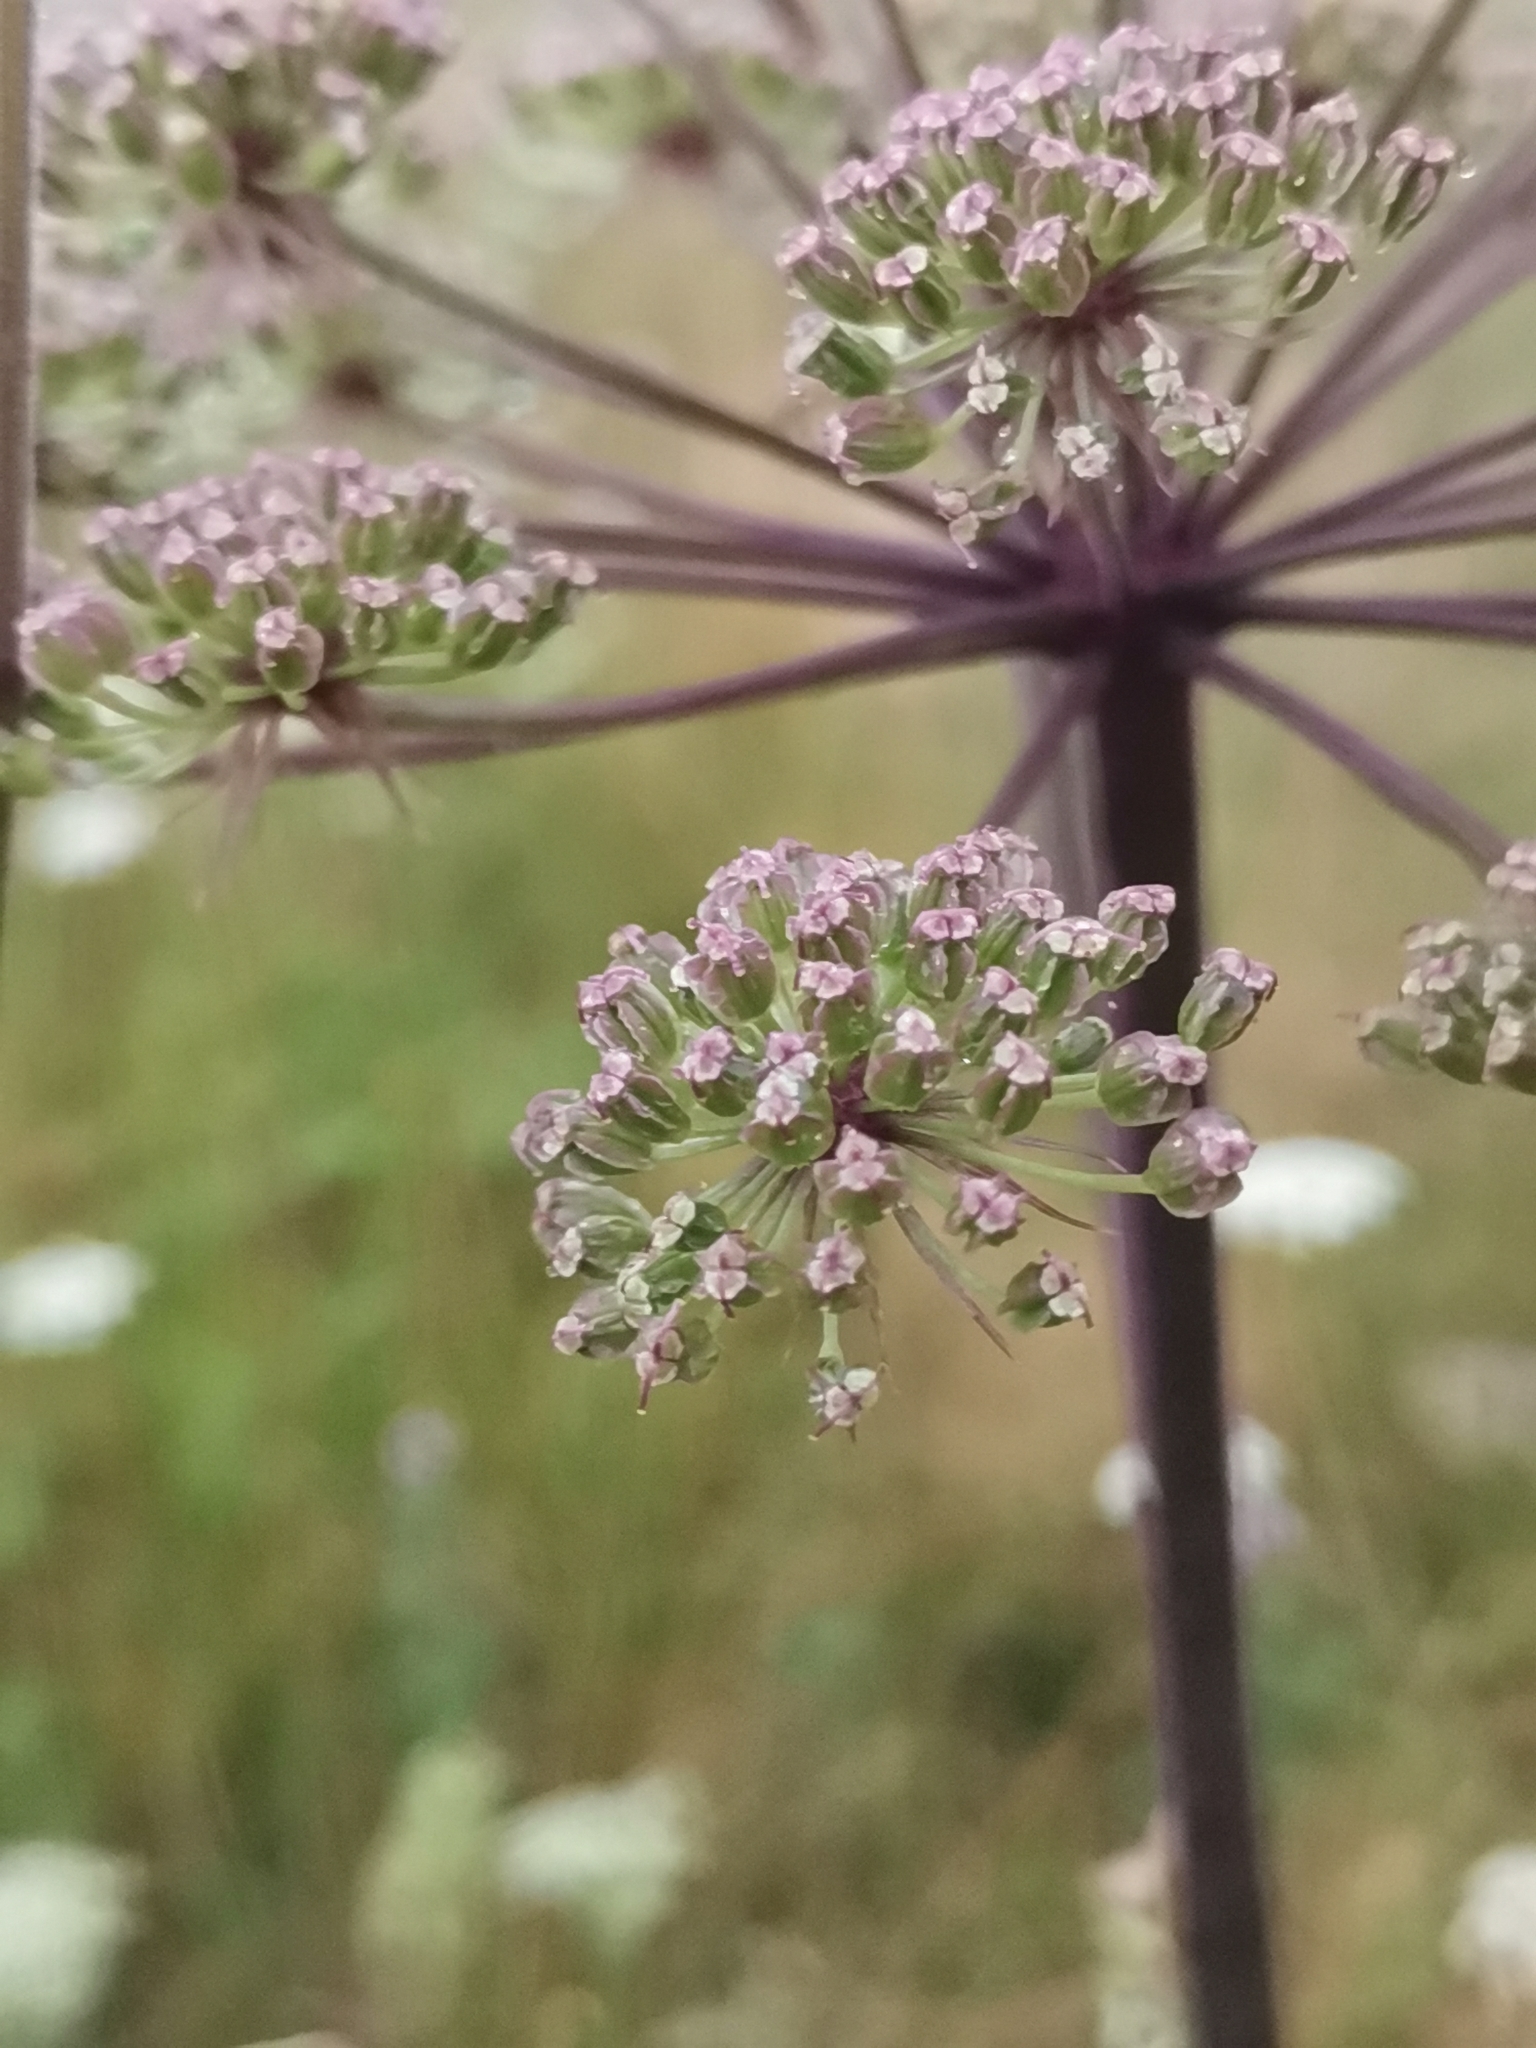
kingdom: Plantae
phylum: Tracheophyta
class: Magnoliopsida
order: Apiales
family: Apiaceae
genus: Angelica
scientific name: Angelica sylvestris
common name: Wild angelica
